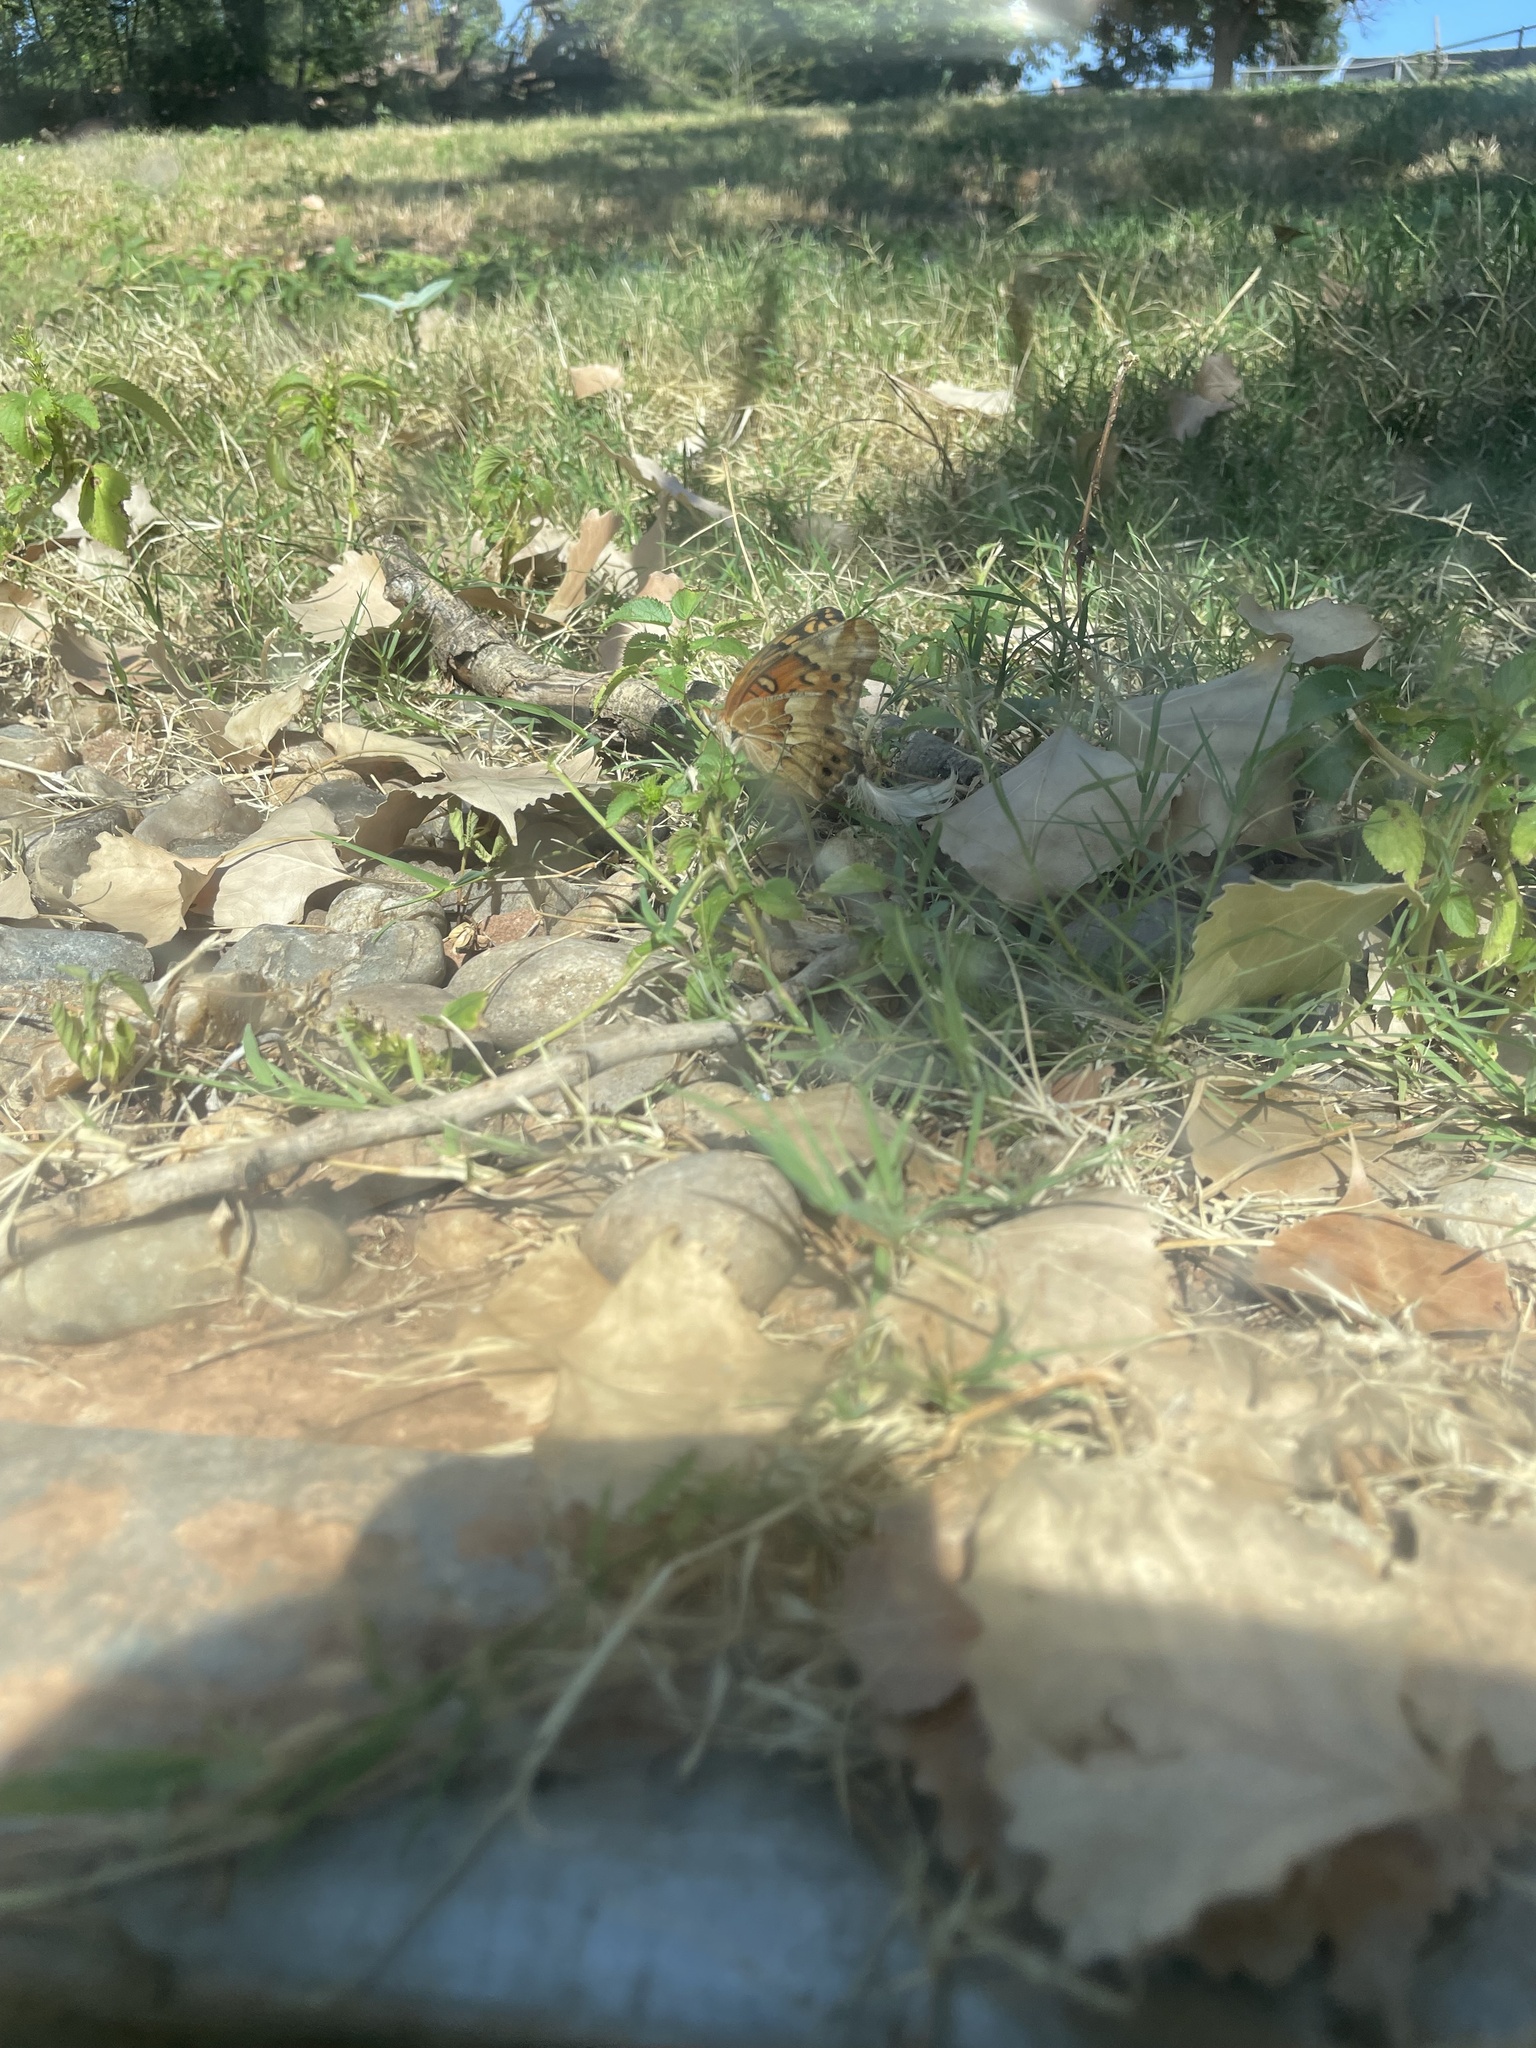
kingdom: Animalia
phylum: Arthropoda
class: Insecta
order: Lepidoptera
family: Nymphalidae
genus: Euptoieta
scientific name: Euptoieta claudia
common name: Variegated fritillary
